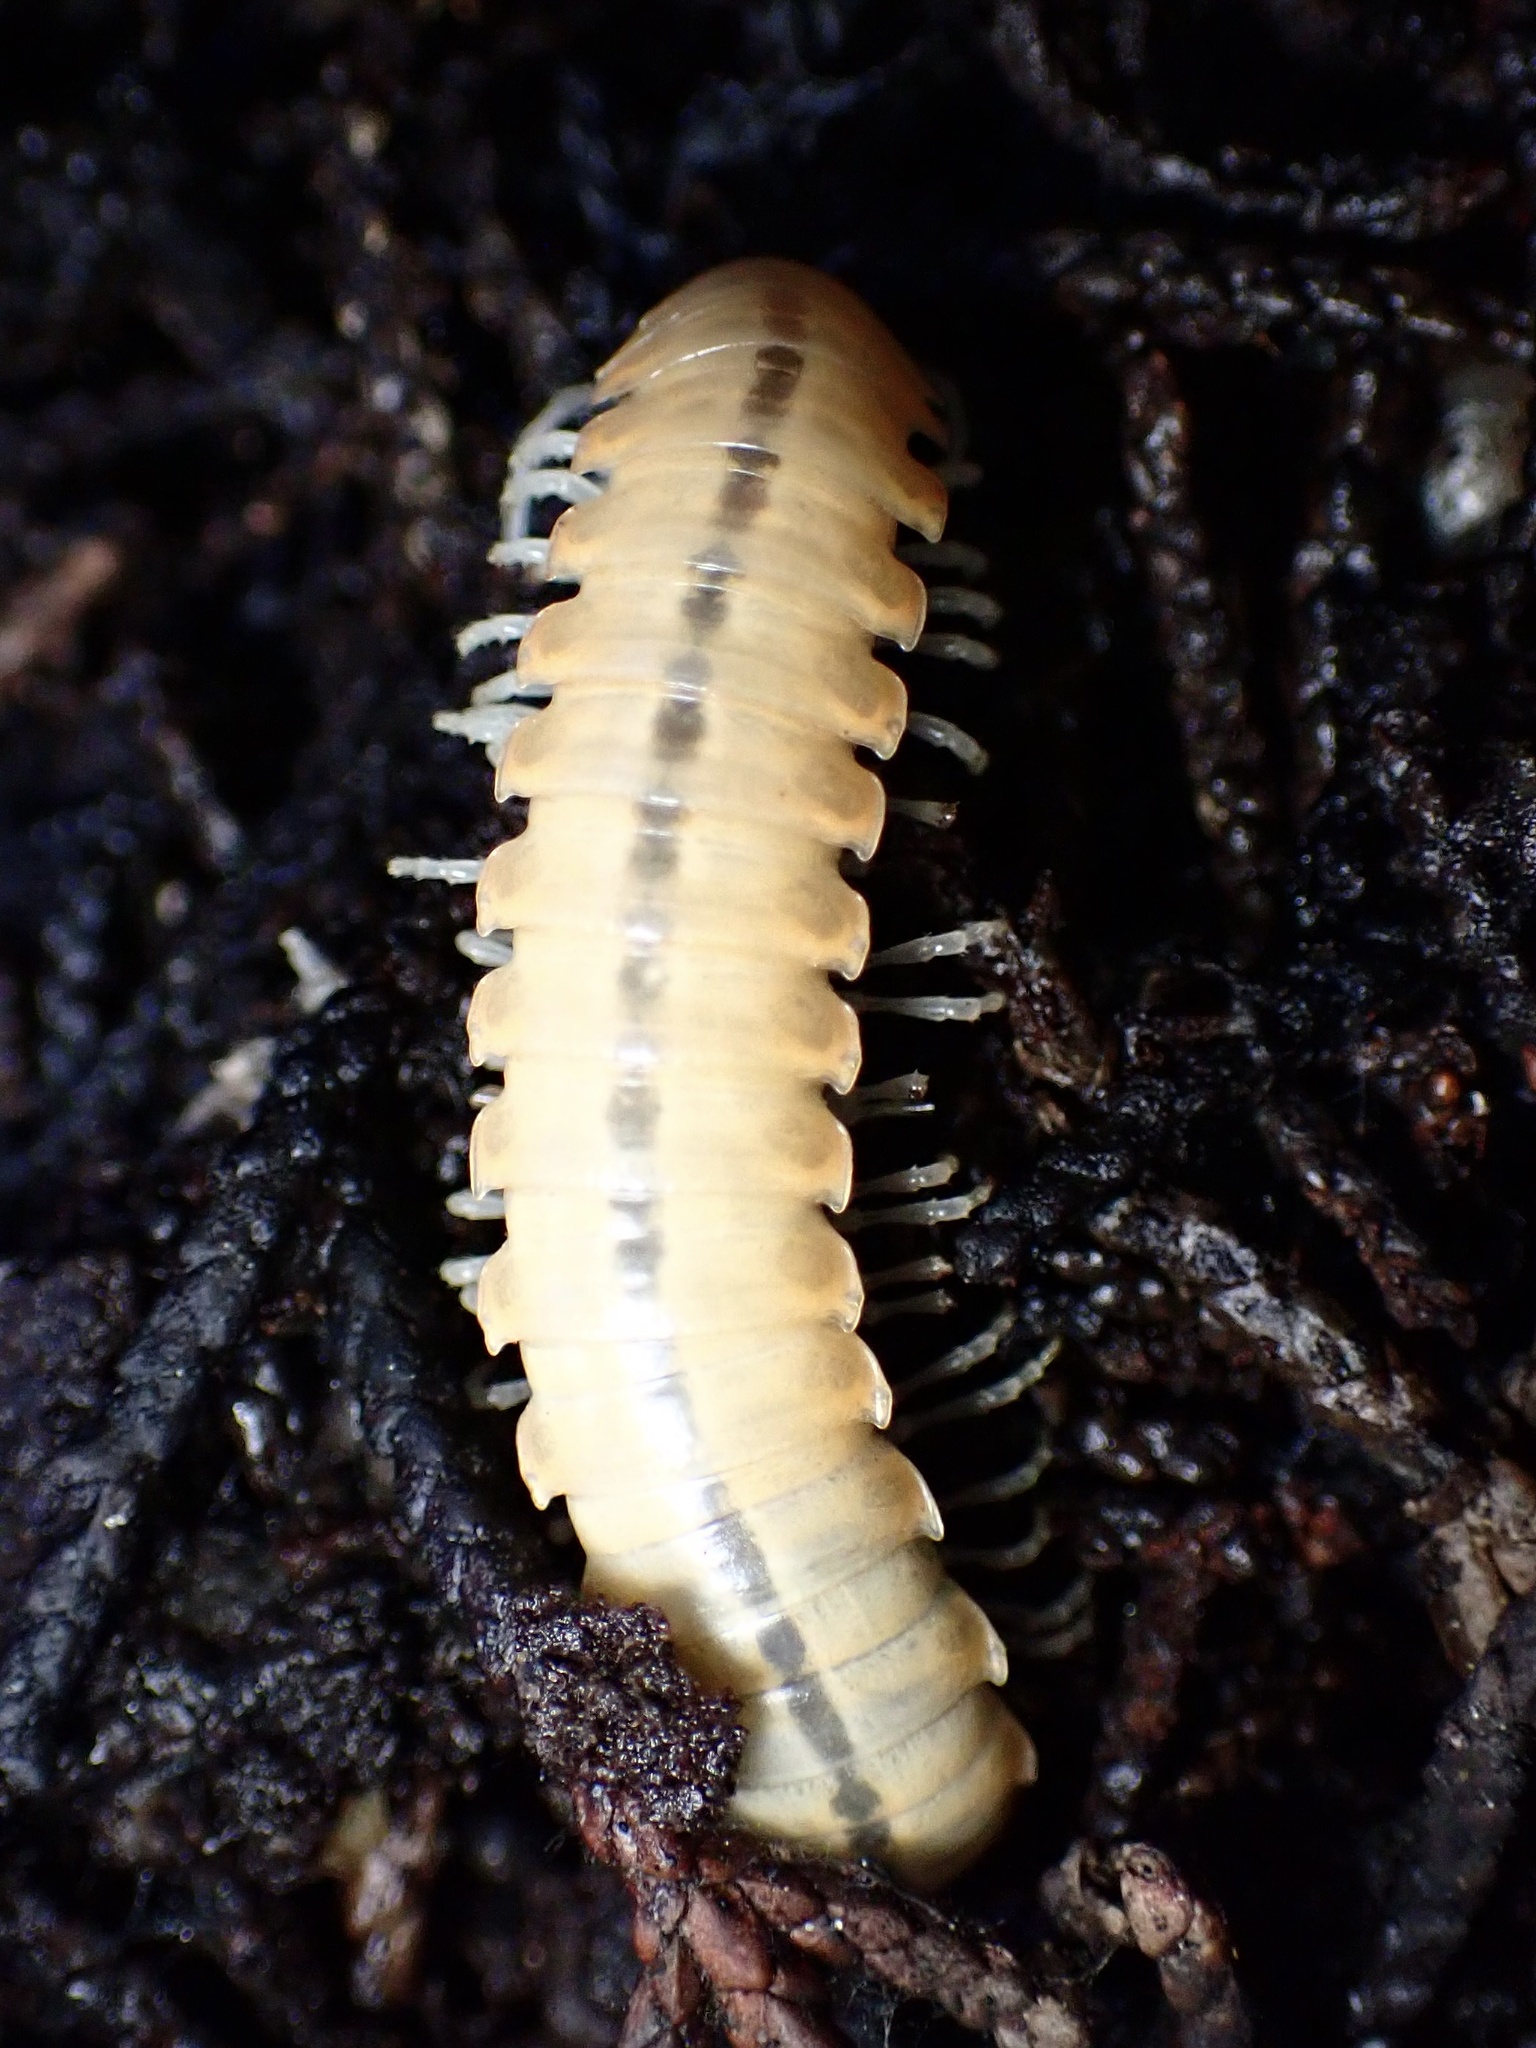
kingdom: Animalia
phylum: Arthropoda
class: Diplopoda
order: Polydesmida
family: Xystodesmidae
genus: Xystocheir
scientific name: Xystocheir dissecta
